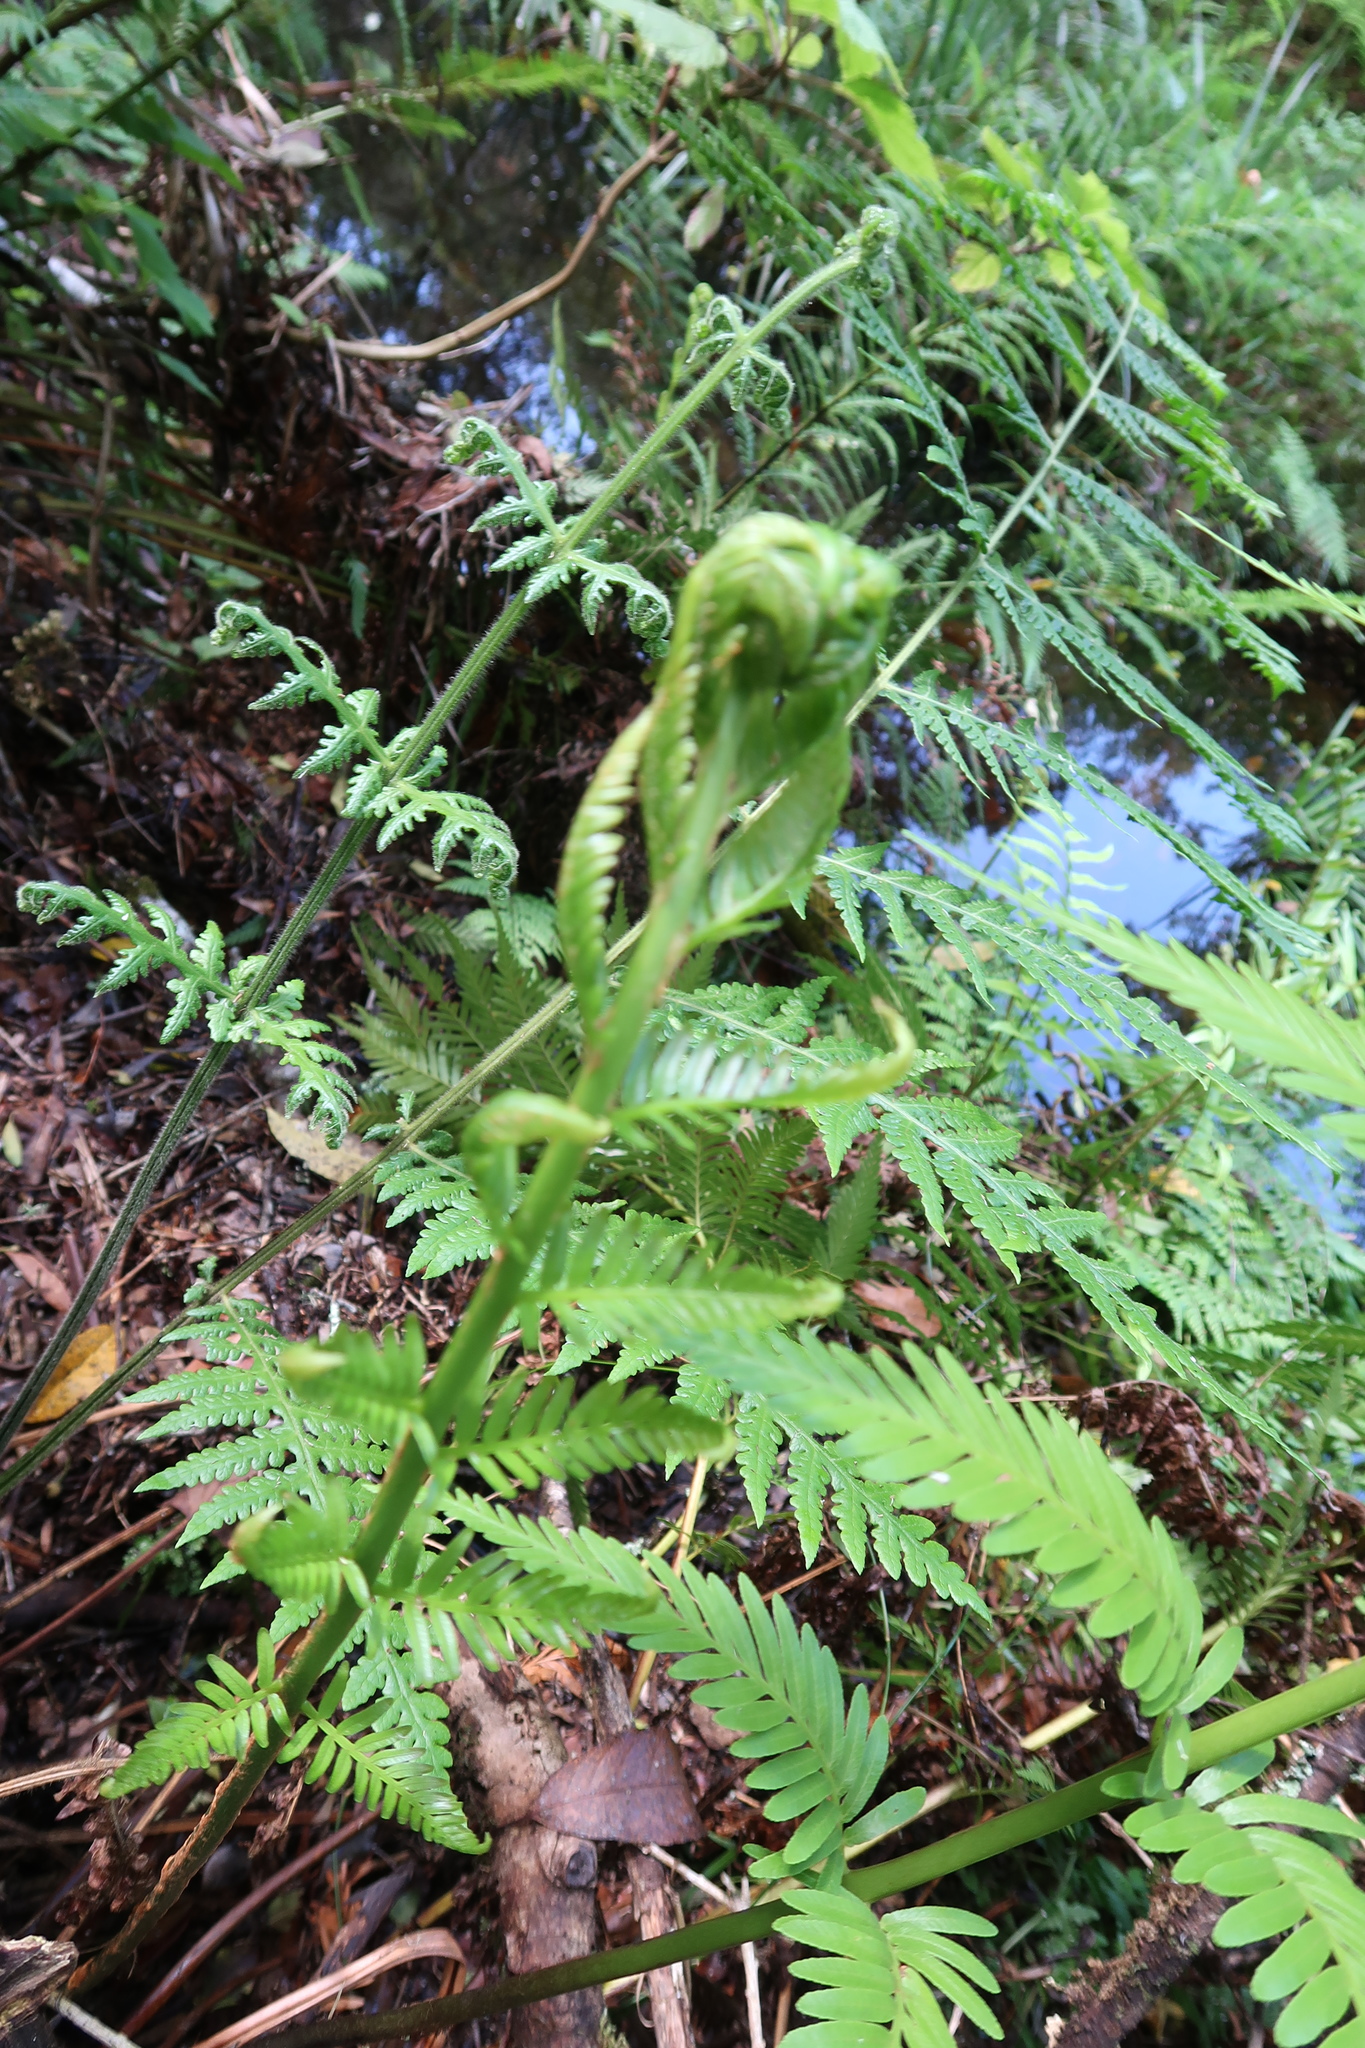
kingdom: Plantae
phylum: Tracheophyta
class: Polypodiopsida
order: Osmundales
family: Osmundaceae
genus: Todea
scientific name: Todea barbara
